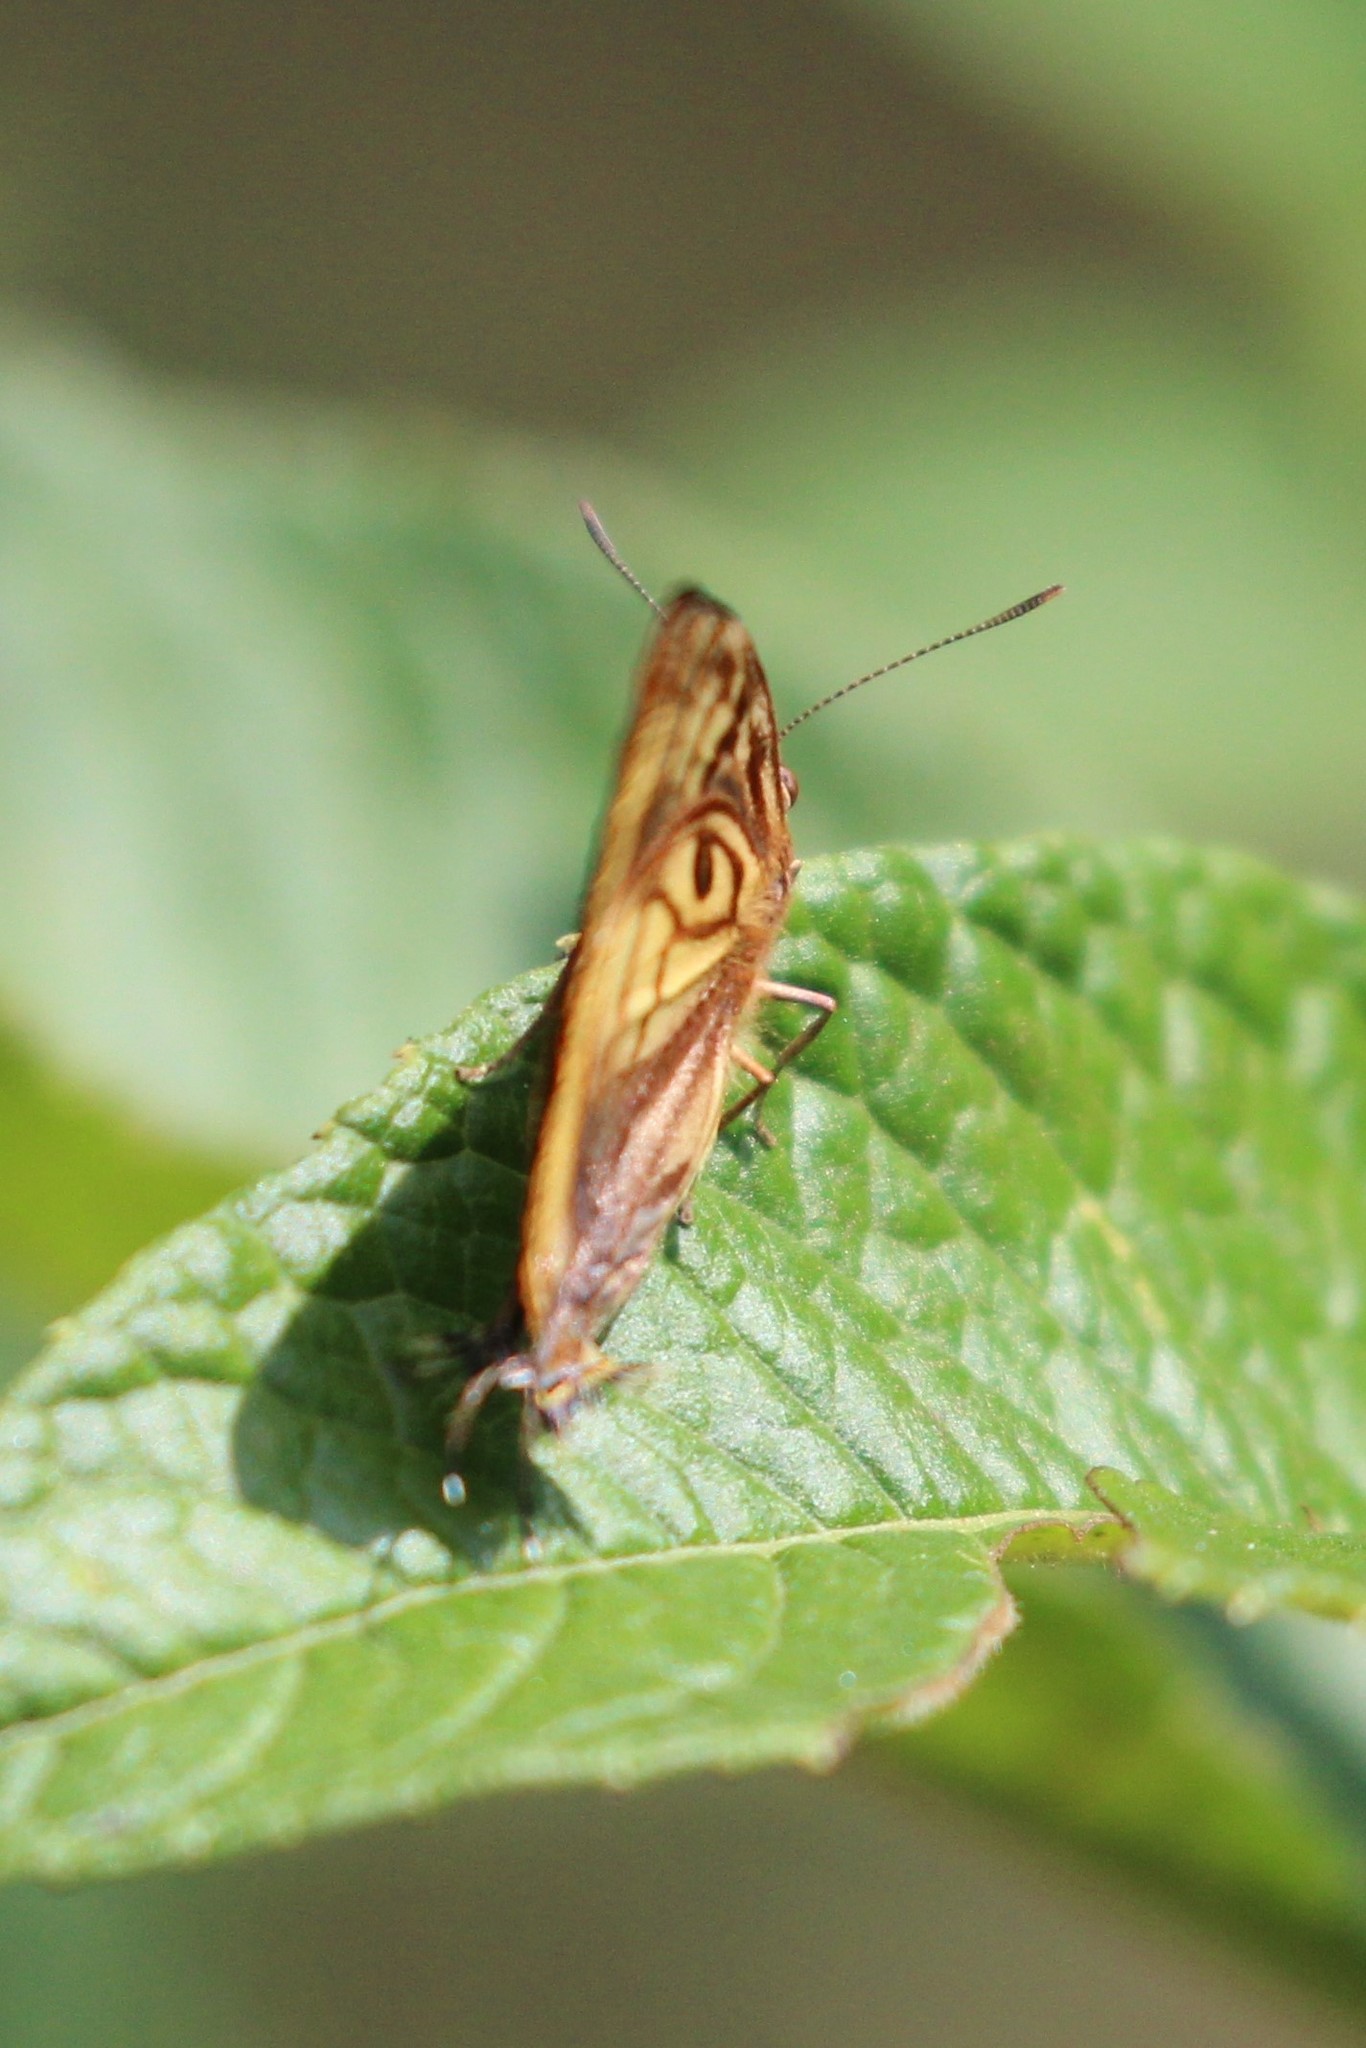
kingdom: Animalia
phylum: Arthropoda
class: Insecta
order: Lepidoptera
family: Lycaenidae
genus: Rekoa
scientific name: Rekoa meton
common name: Meton hairstreak
